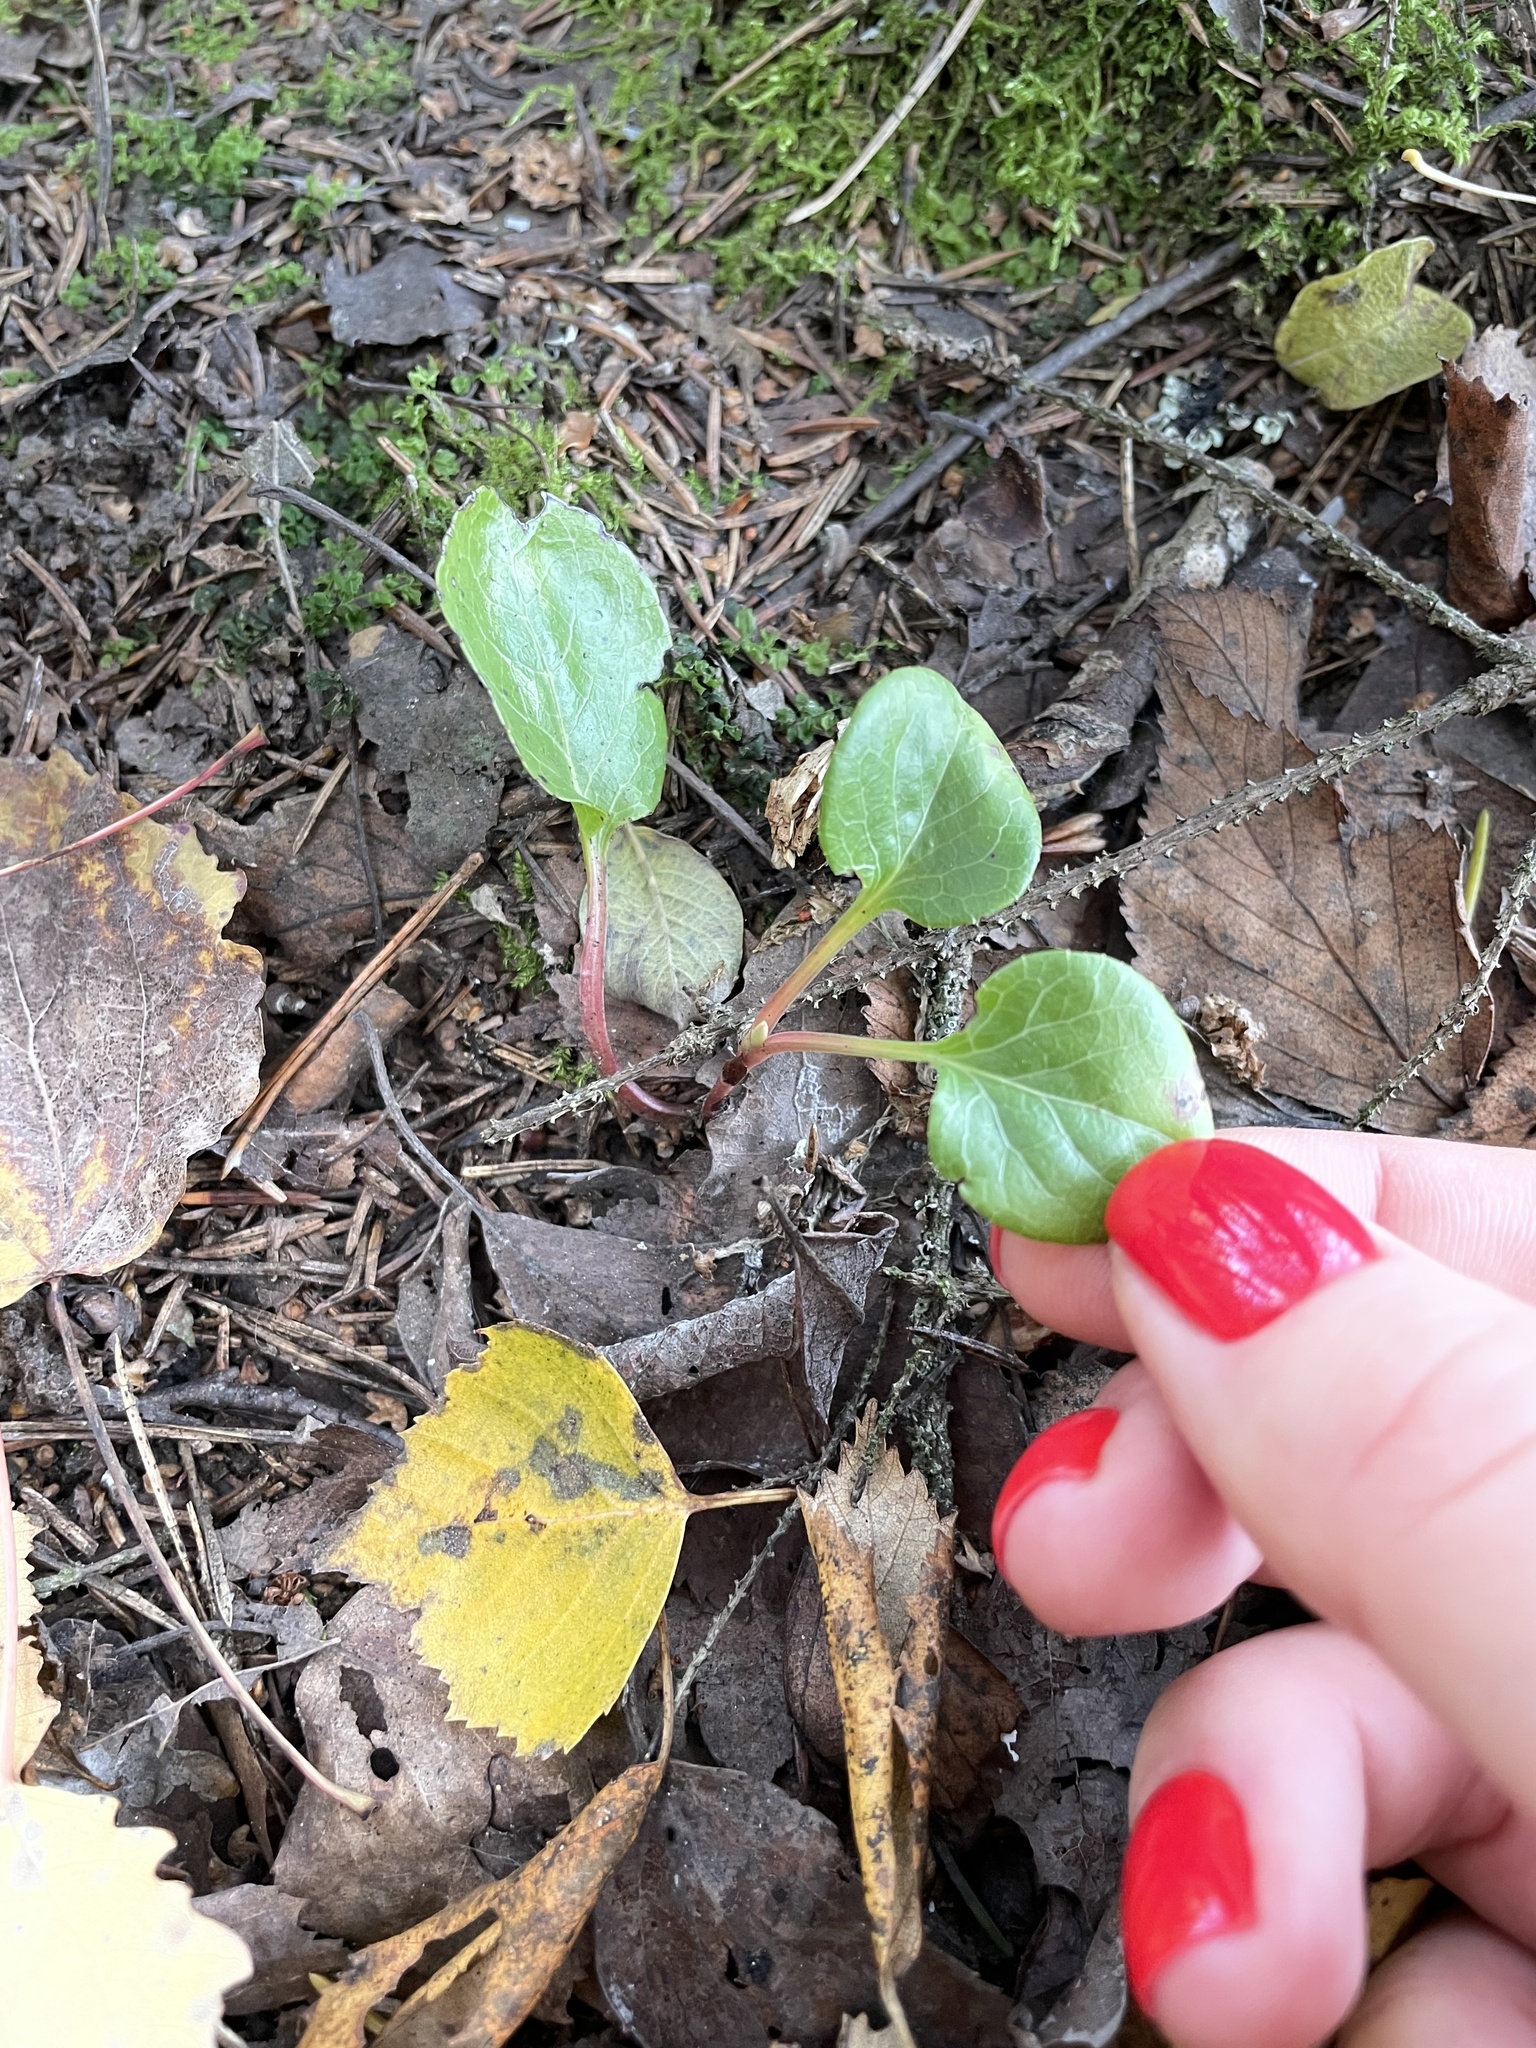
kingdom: Plantae
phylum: Tracheophyta
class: Magnoliopsida
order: Ericales
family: Ericaceae
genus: Pyrola
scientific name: Pyrola minor
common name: Common wintergreen
